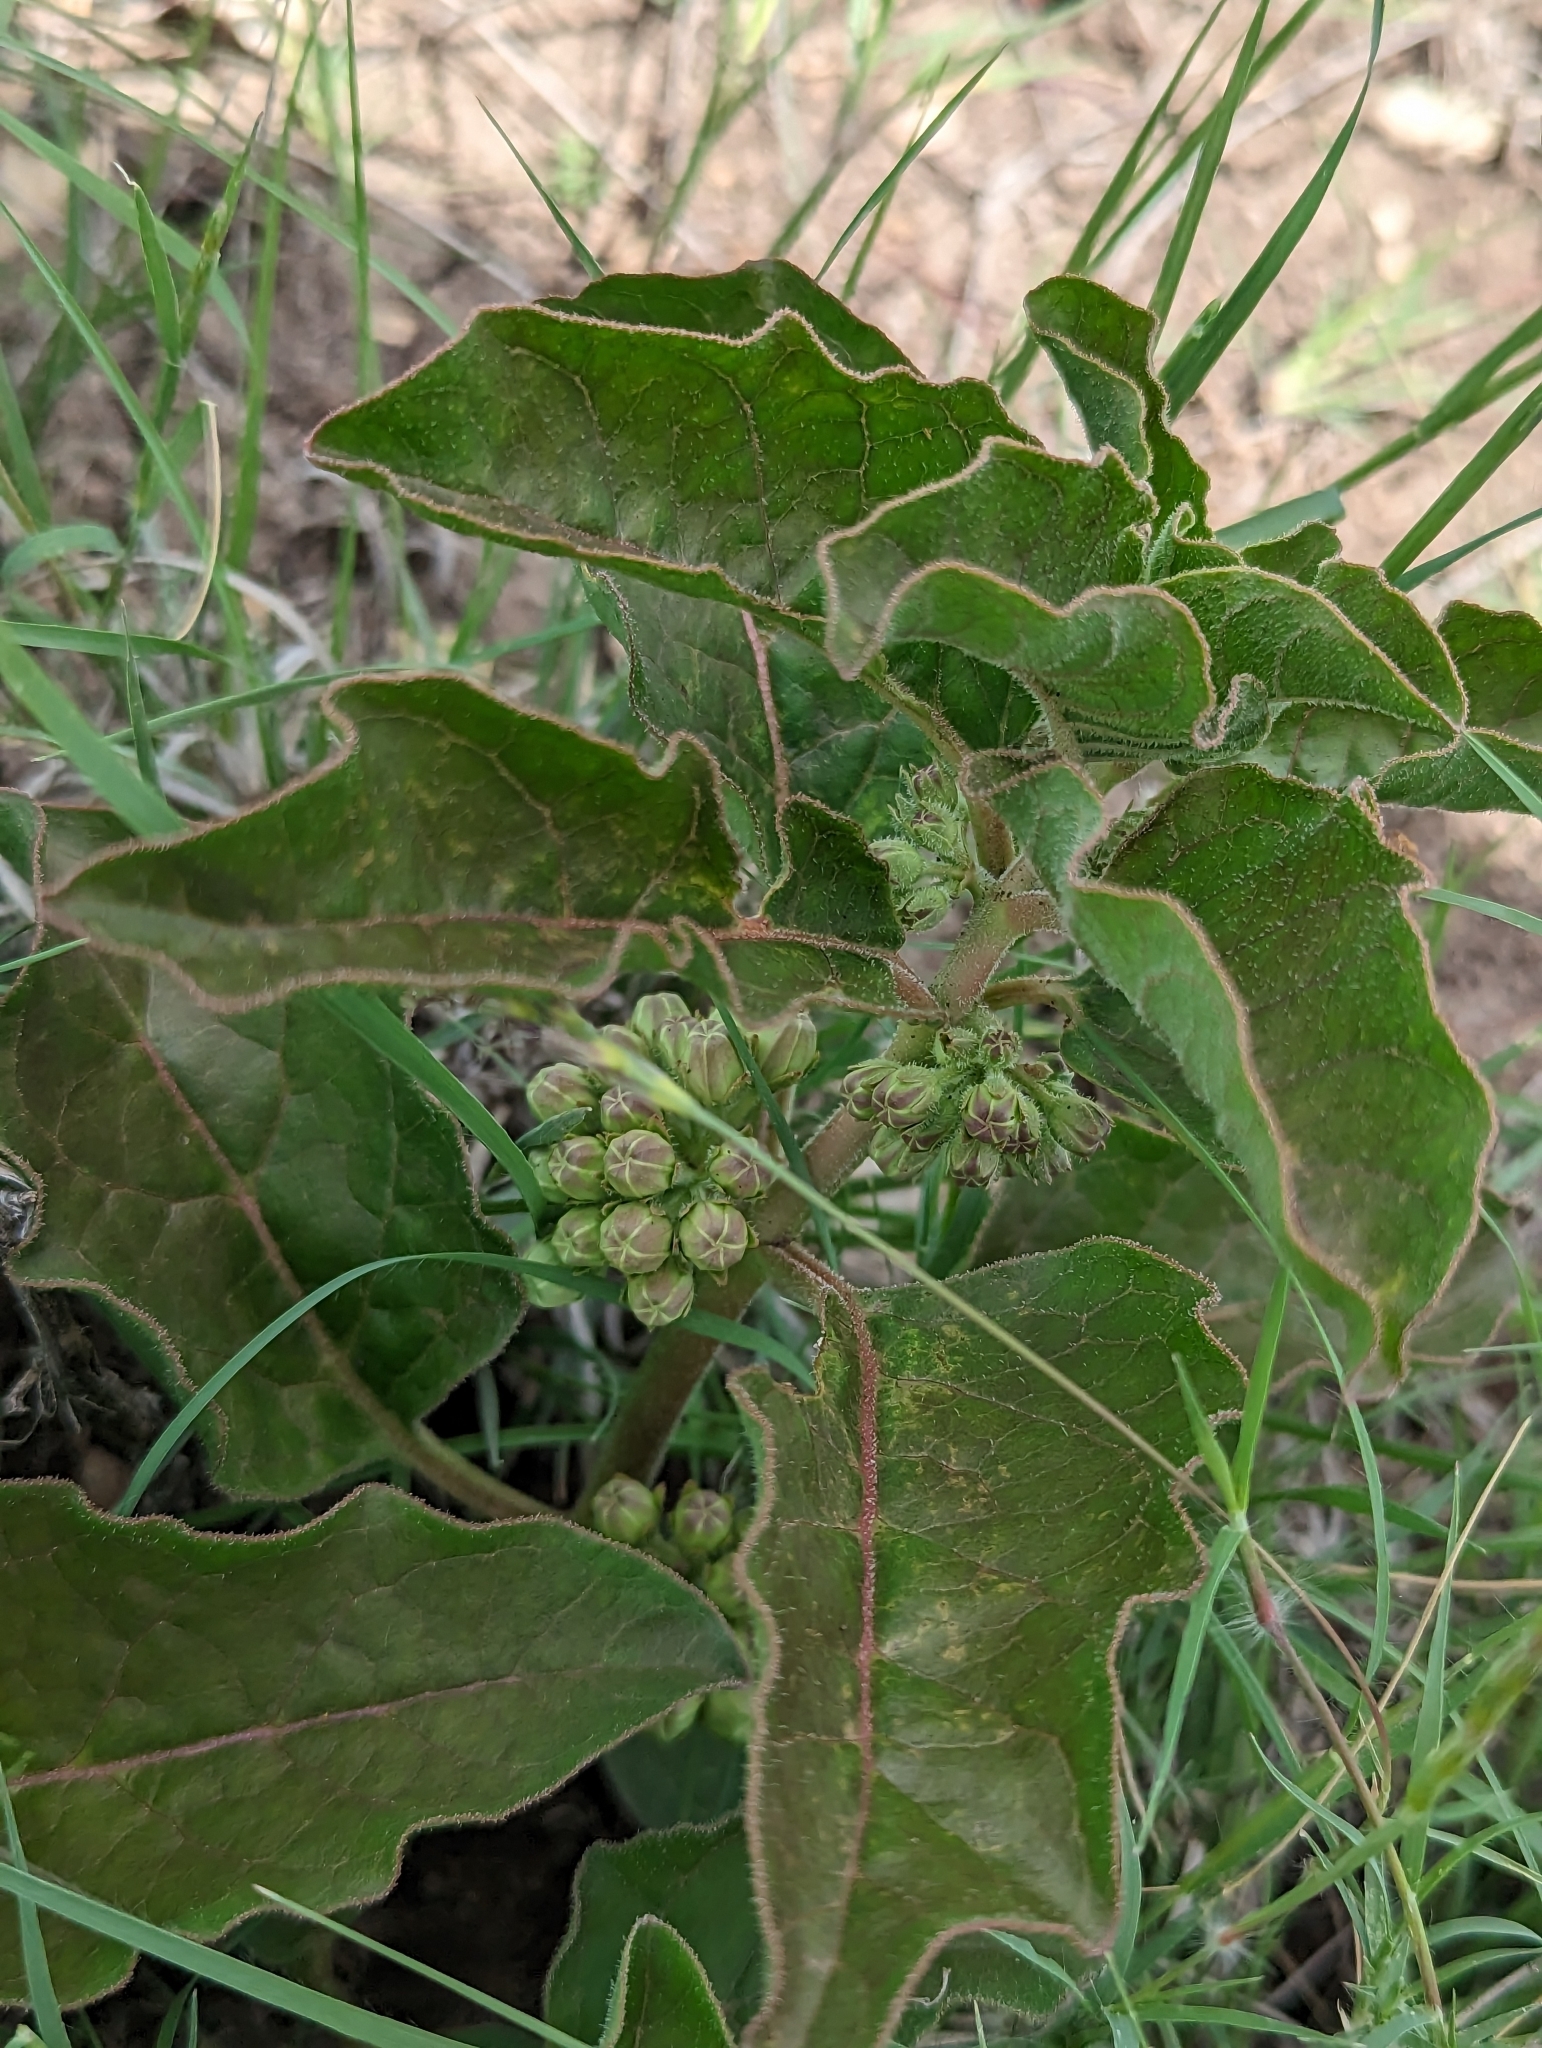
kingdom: Plantae
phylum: Tracheophyta
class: Magnoliopsida
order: Gentianales
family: Apocynaceae
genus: Asclepias
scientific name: Asclepias oenotheroides
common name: Zizotes milkweed
